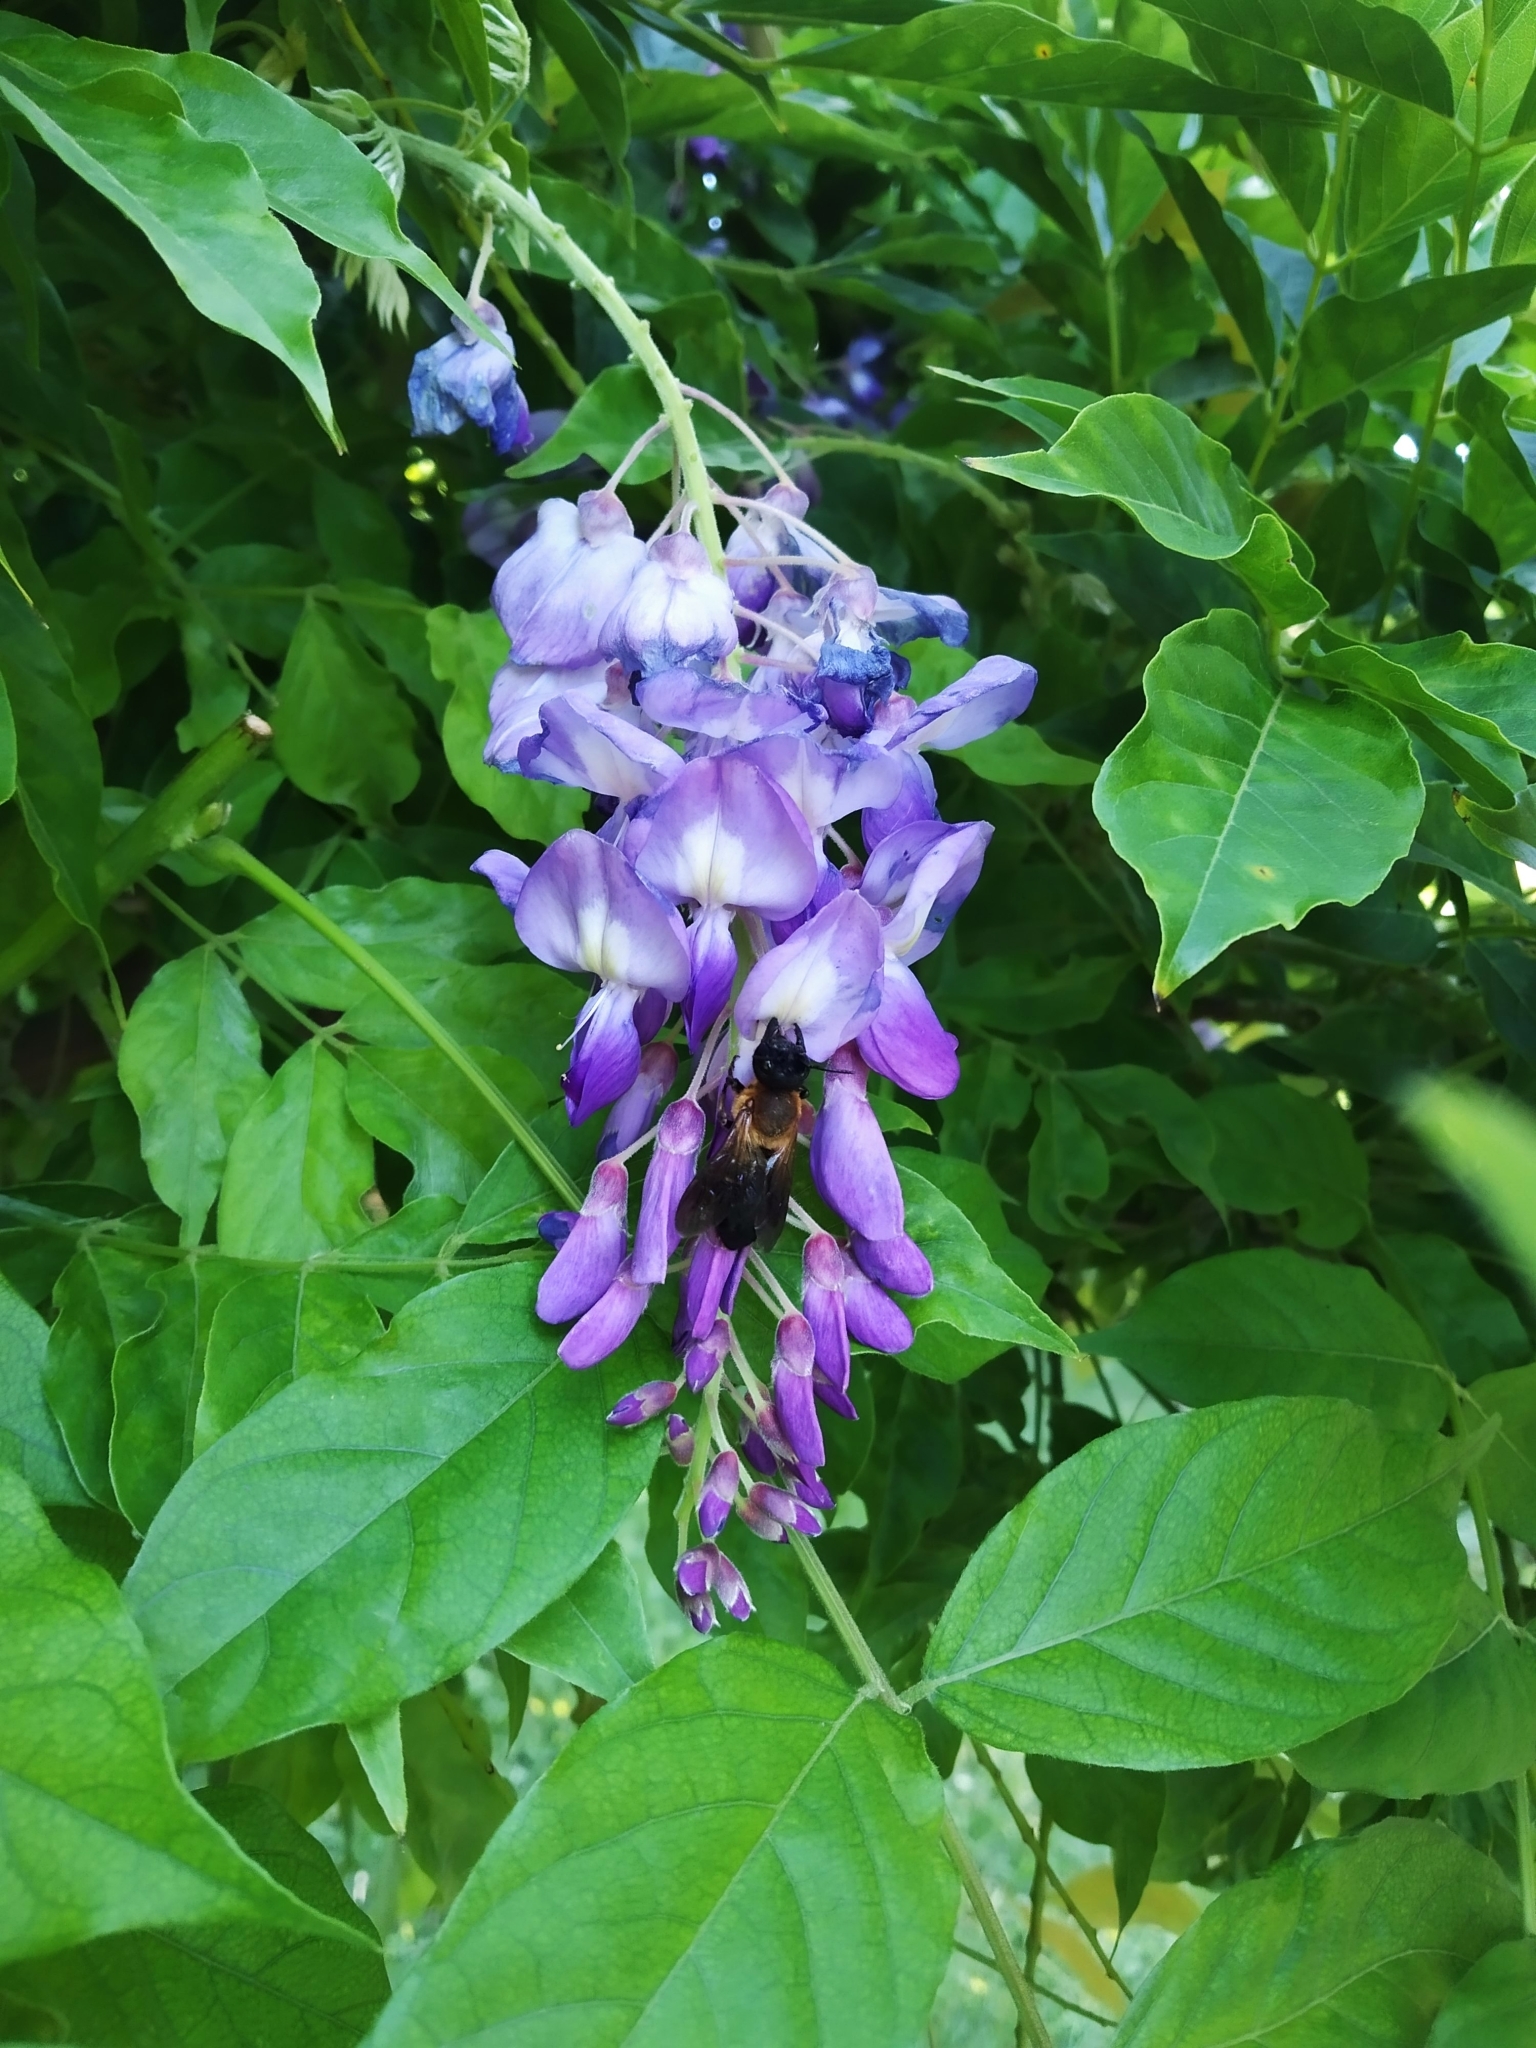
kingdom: Animalia
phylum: Arthropoda
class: Insecta
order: Hymenoptera
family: Megachilidae
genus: Megachile
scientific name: Megachile sculpturalis
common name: Sculptured resin bee
